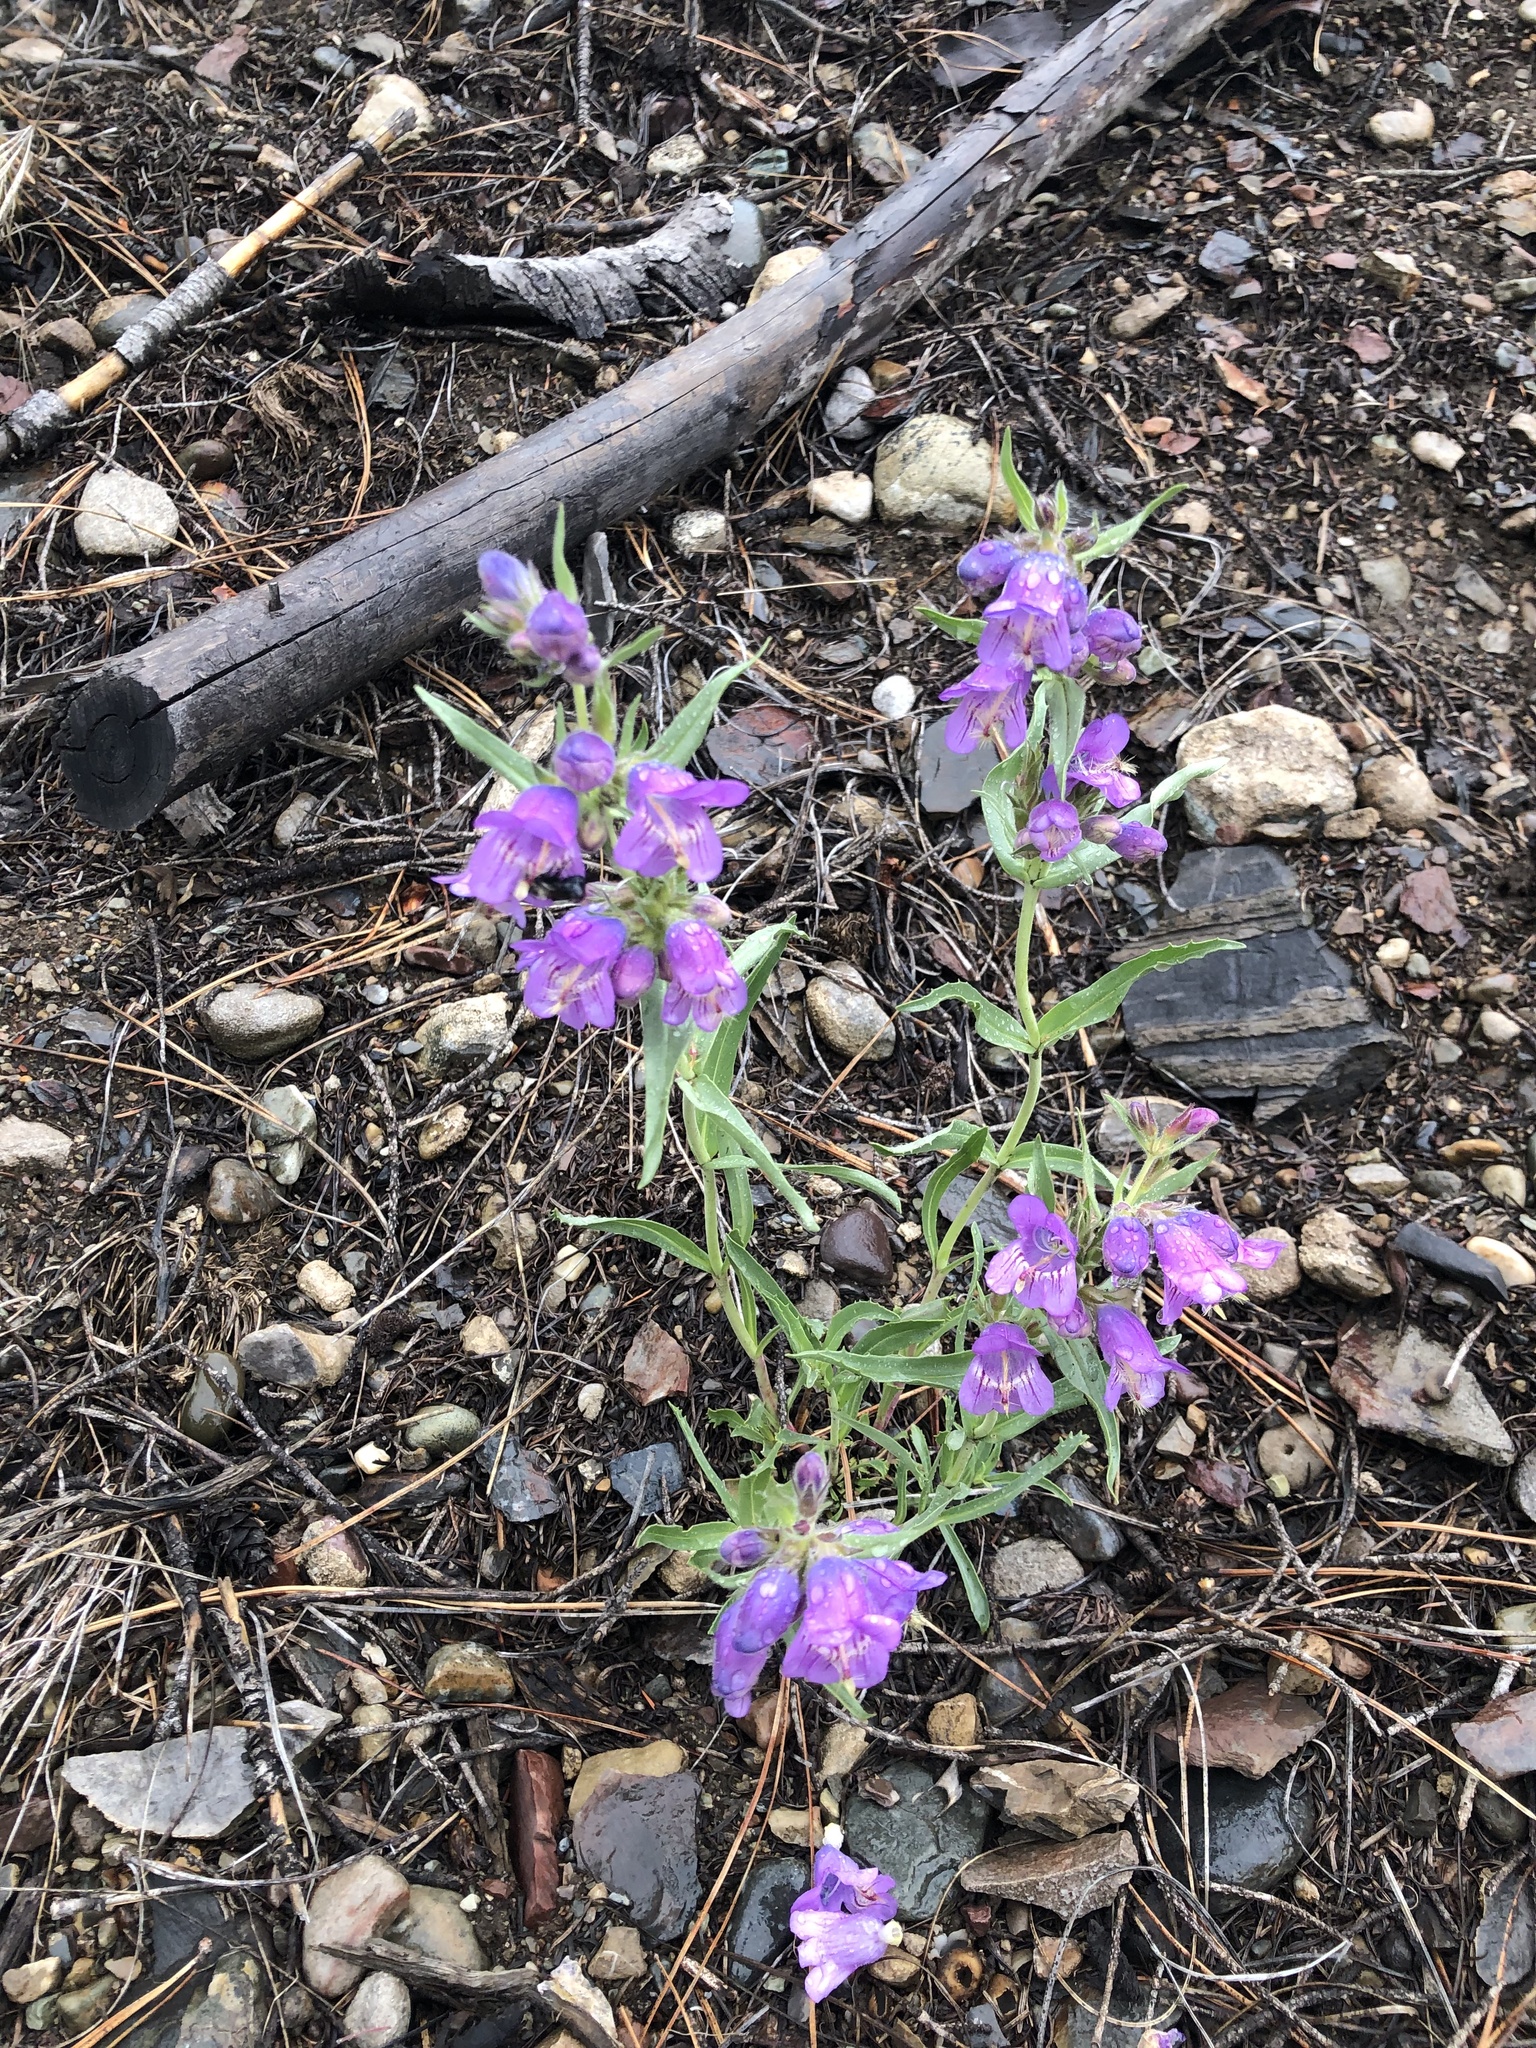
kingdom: Plantae
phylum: Tracheophyta
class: Magnoliopsida
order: Lamiales
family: Plantaginaceae
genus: Penstemon
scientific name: Penstemon eriantherus
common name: Crested beardtongue
